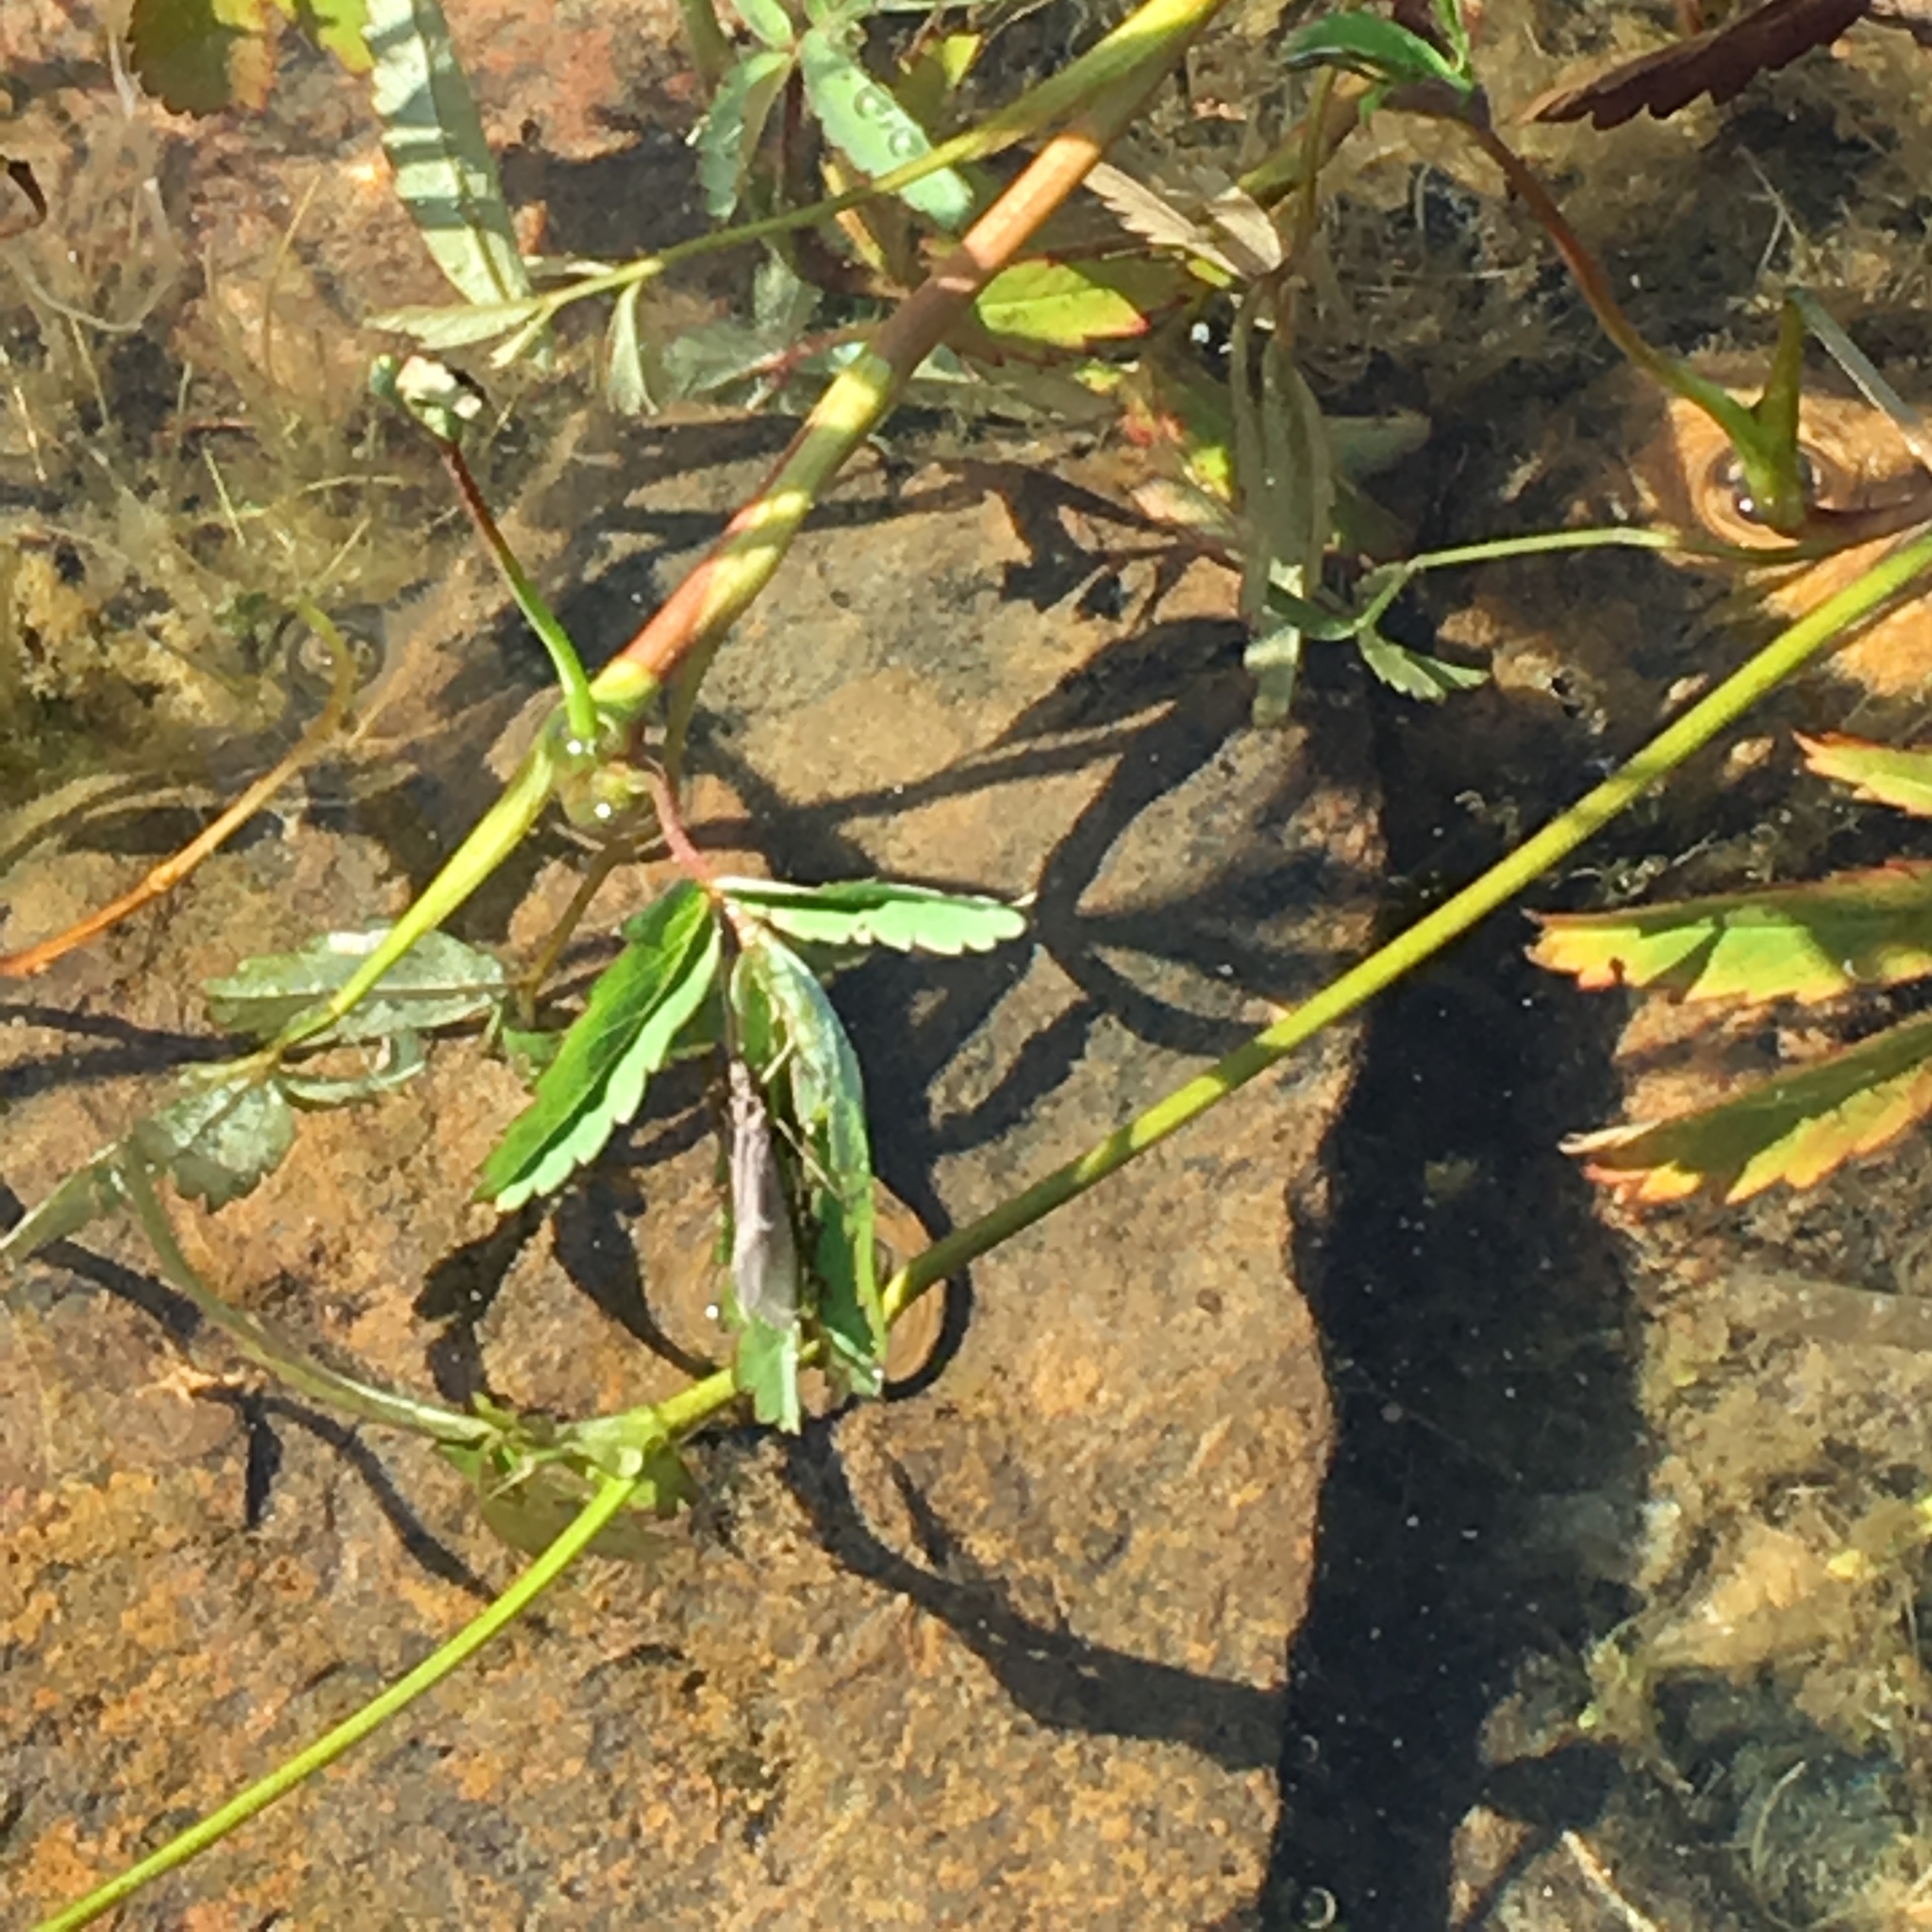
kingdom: Plantae
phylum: Tracheophyta
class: Magnoliopsida
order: Rosales
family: Rosaceae
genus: Comarum
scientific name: Comarum palustre
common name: Marsh cinquefoil
